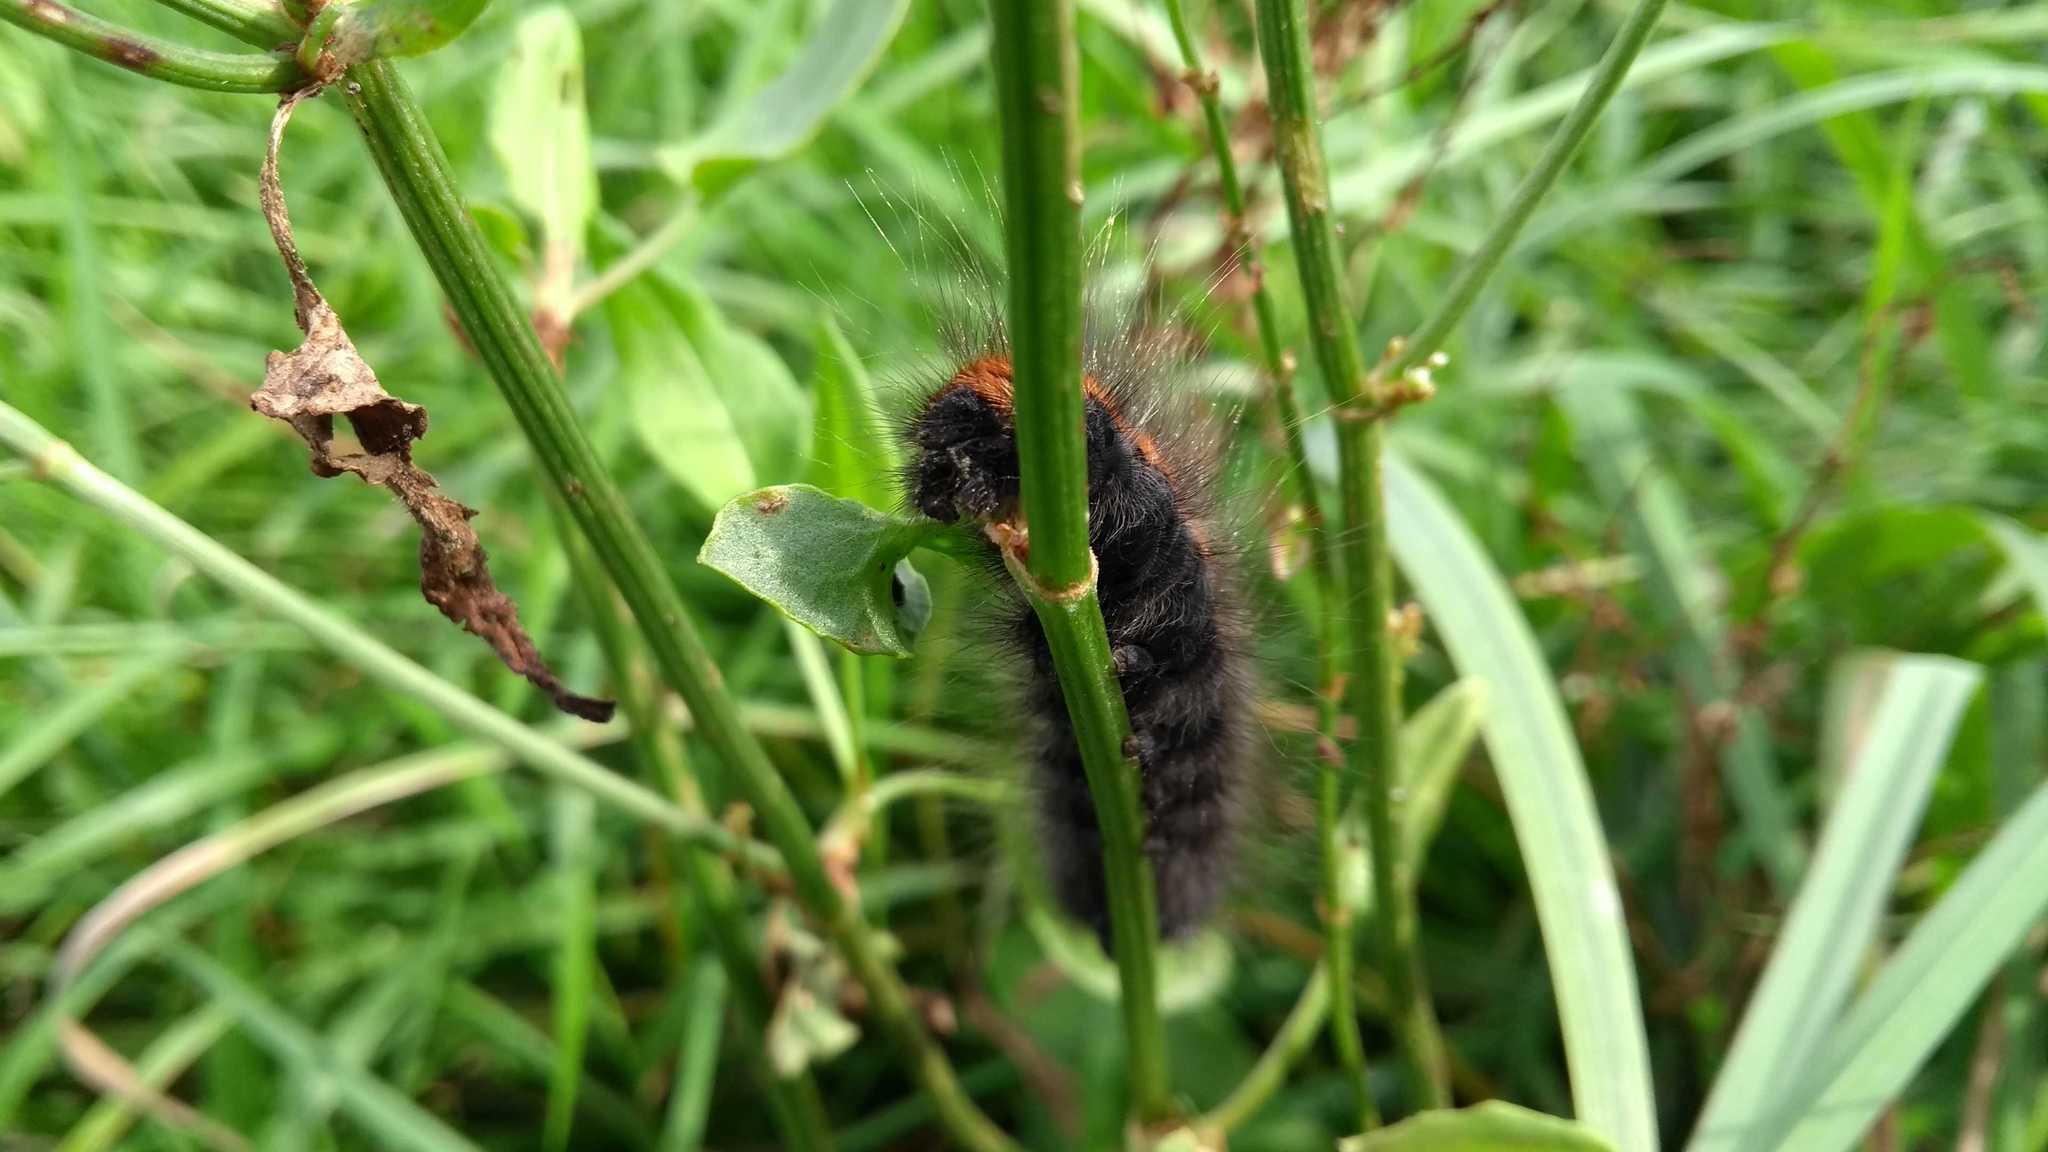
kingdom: Animalia
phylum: Arthropoda
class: Insecta
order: Lepidoptera
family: Lasiocampidae
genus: Macrothylacia
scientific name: Macrothylacia rubi
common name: Fox moth
